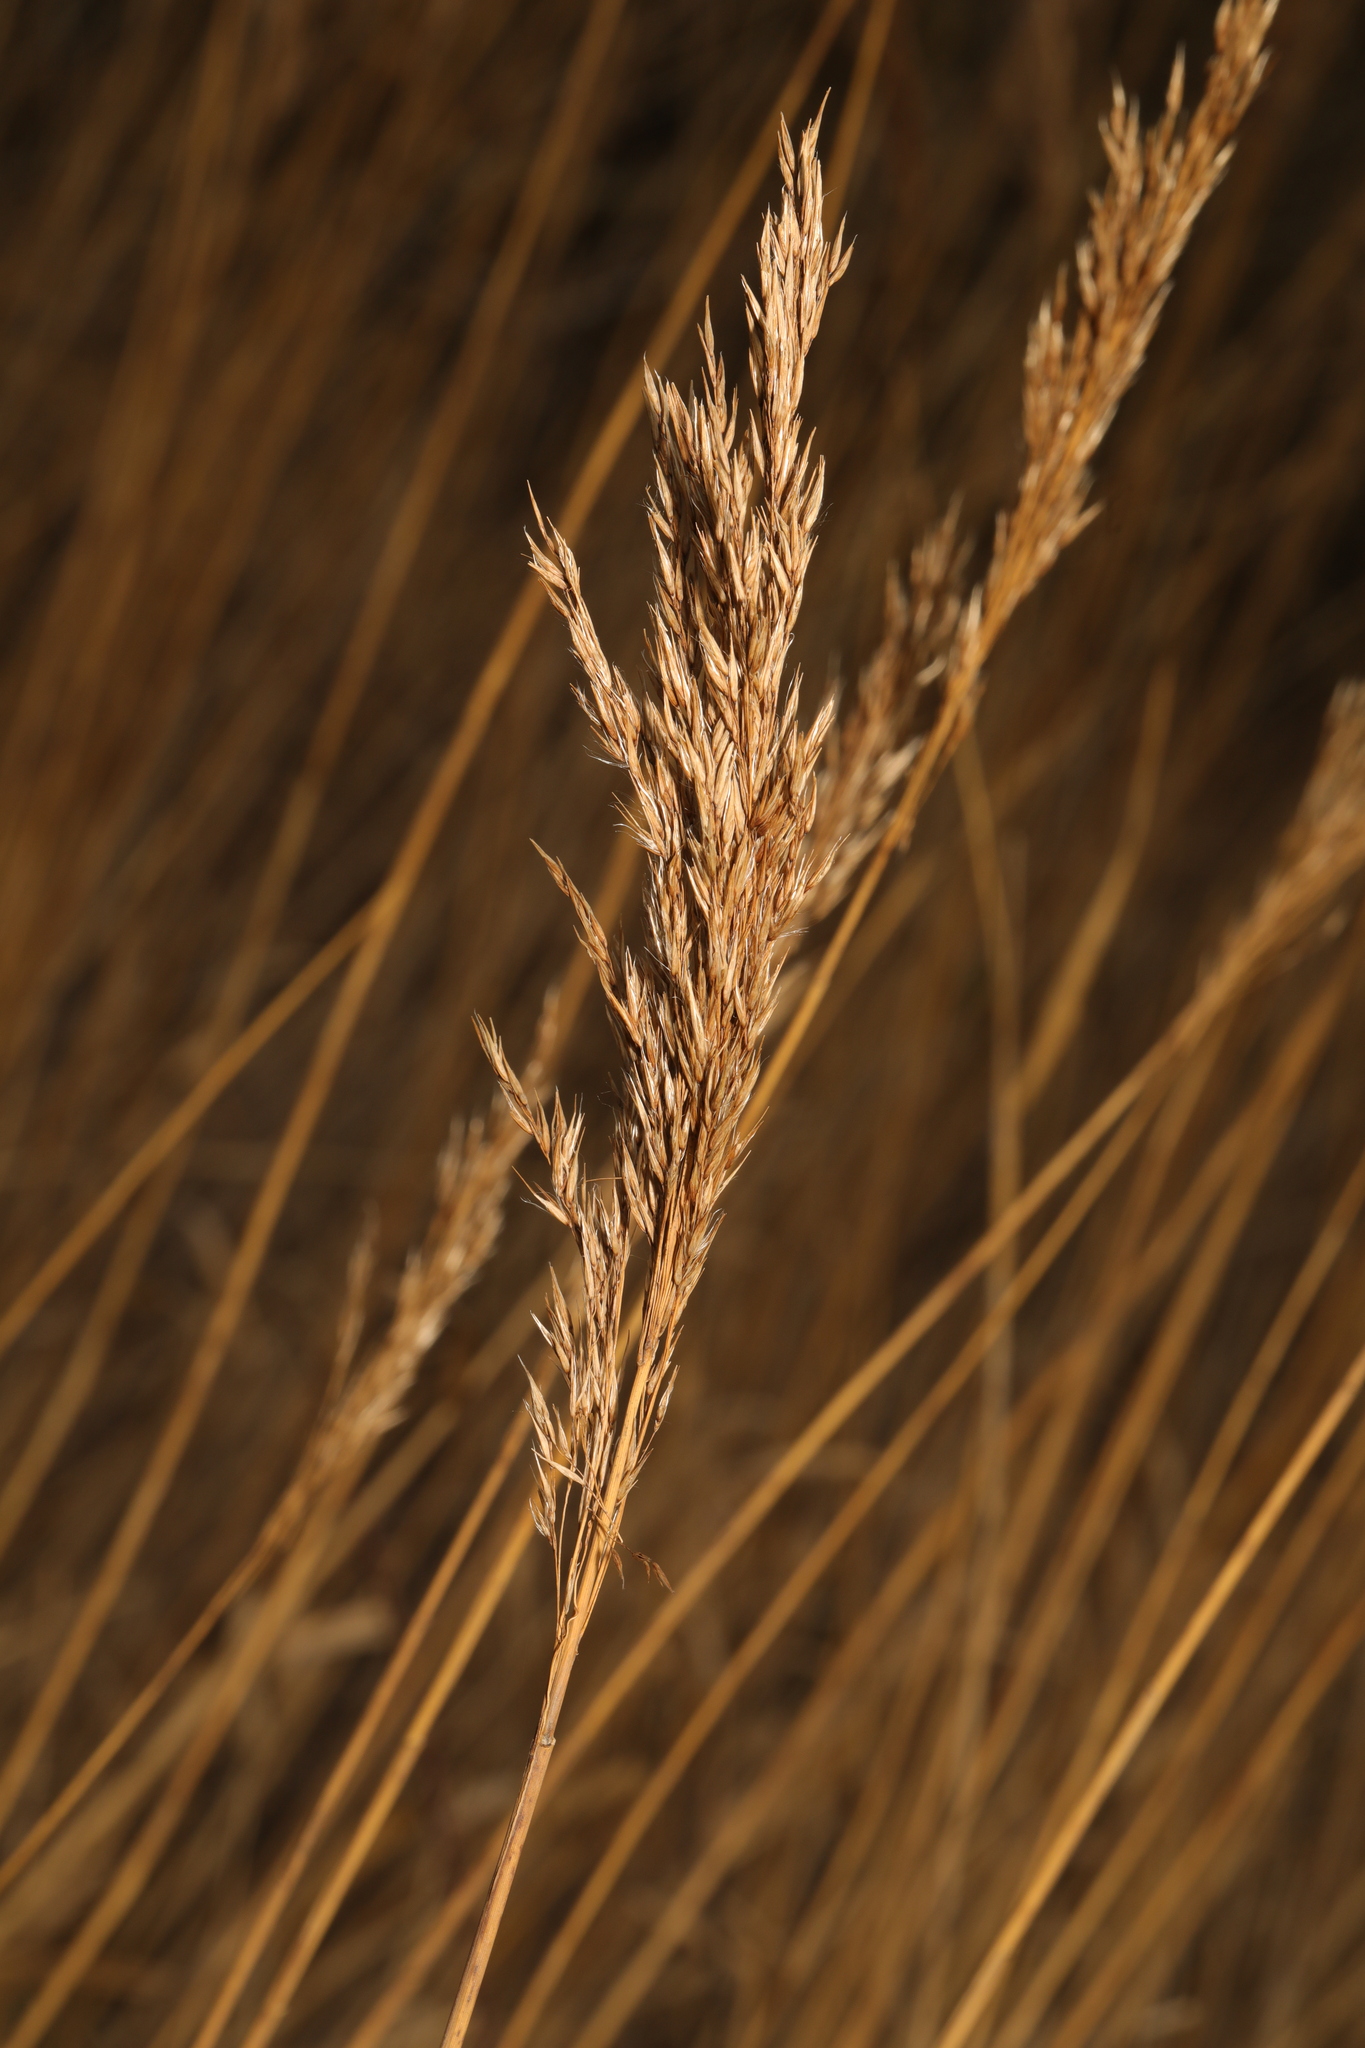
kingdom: Plantae
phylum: Tracheophyta
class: Liliopsida
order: Poales
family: Poaceae
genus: Phragmites
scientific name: Phragmites australis
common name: Common reed
